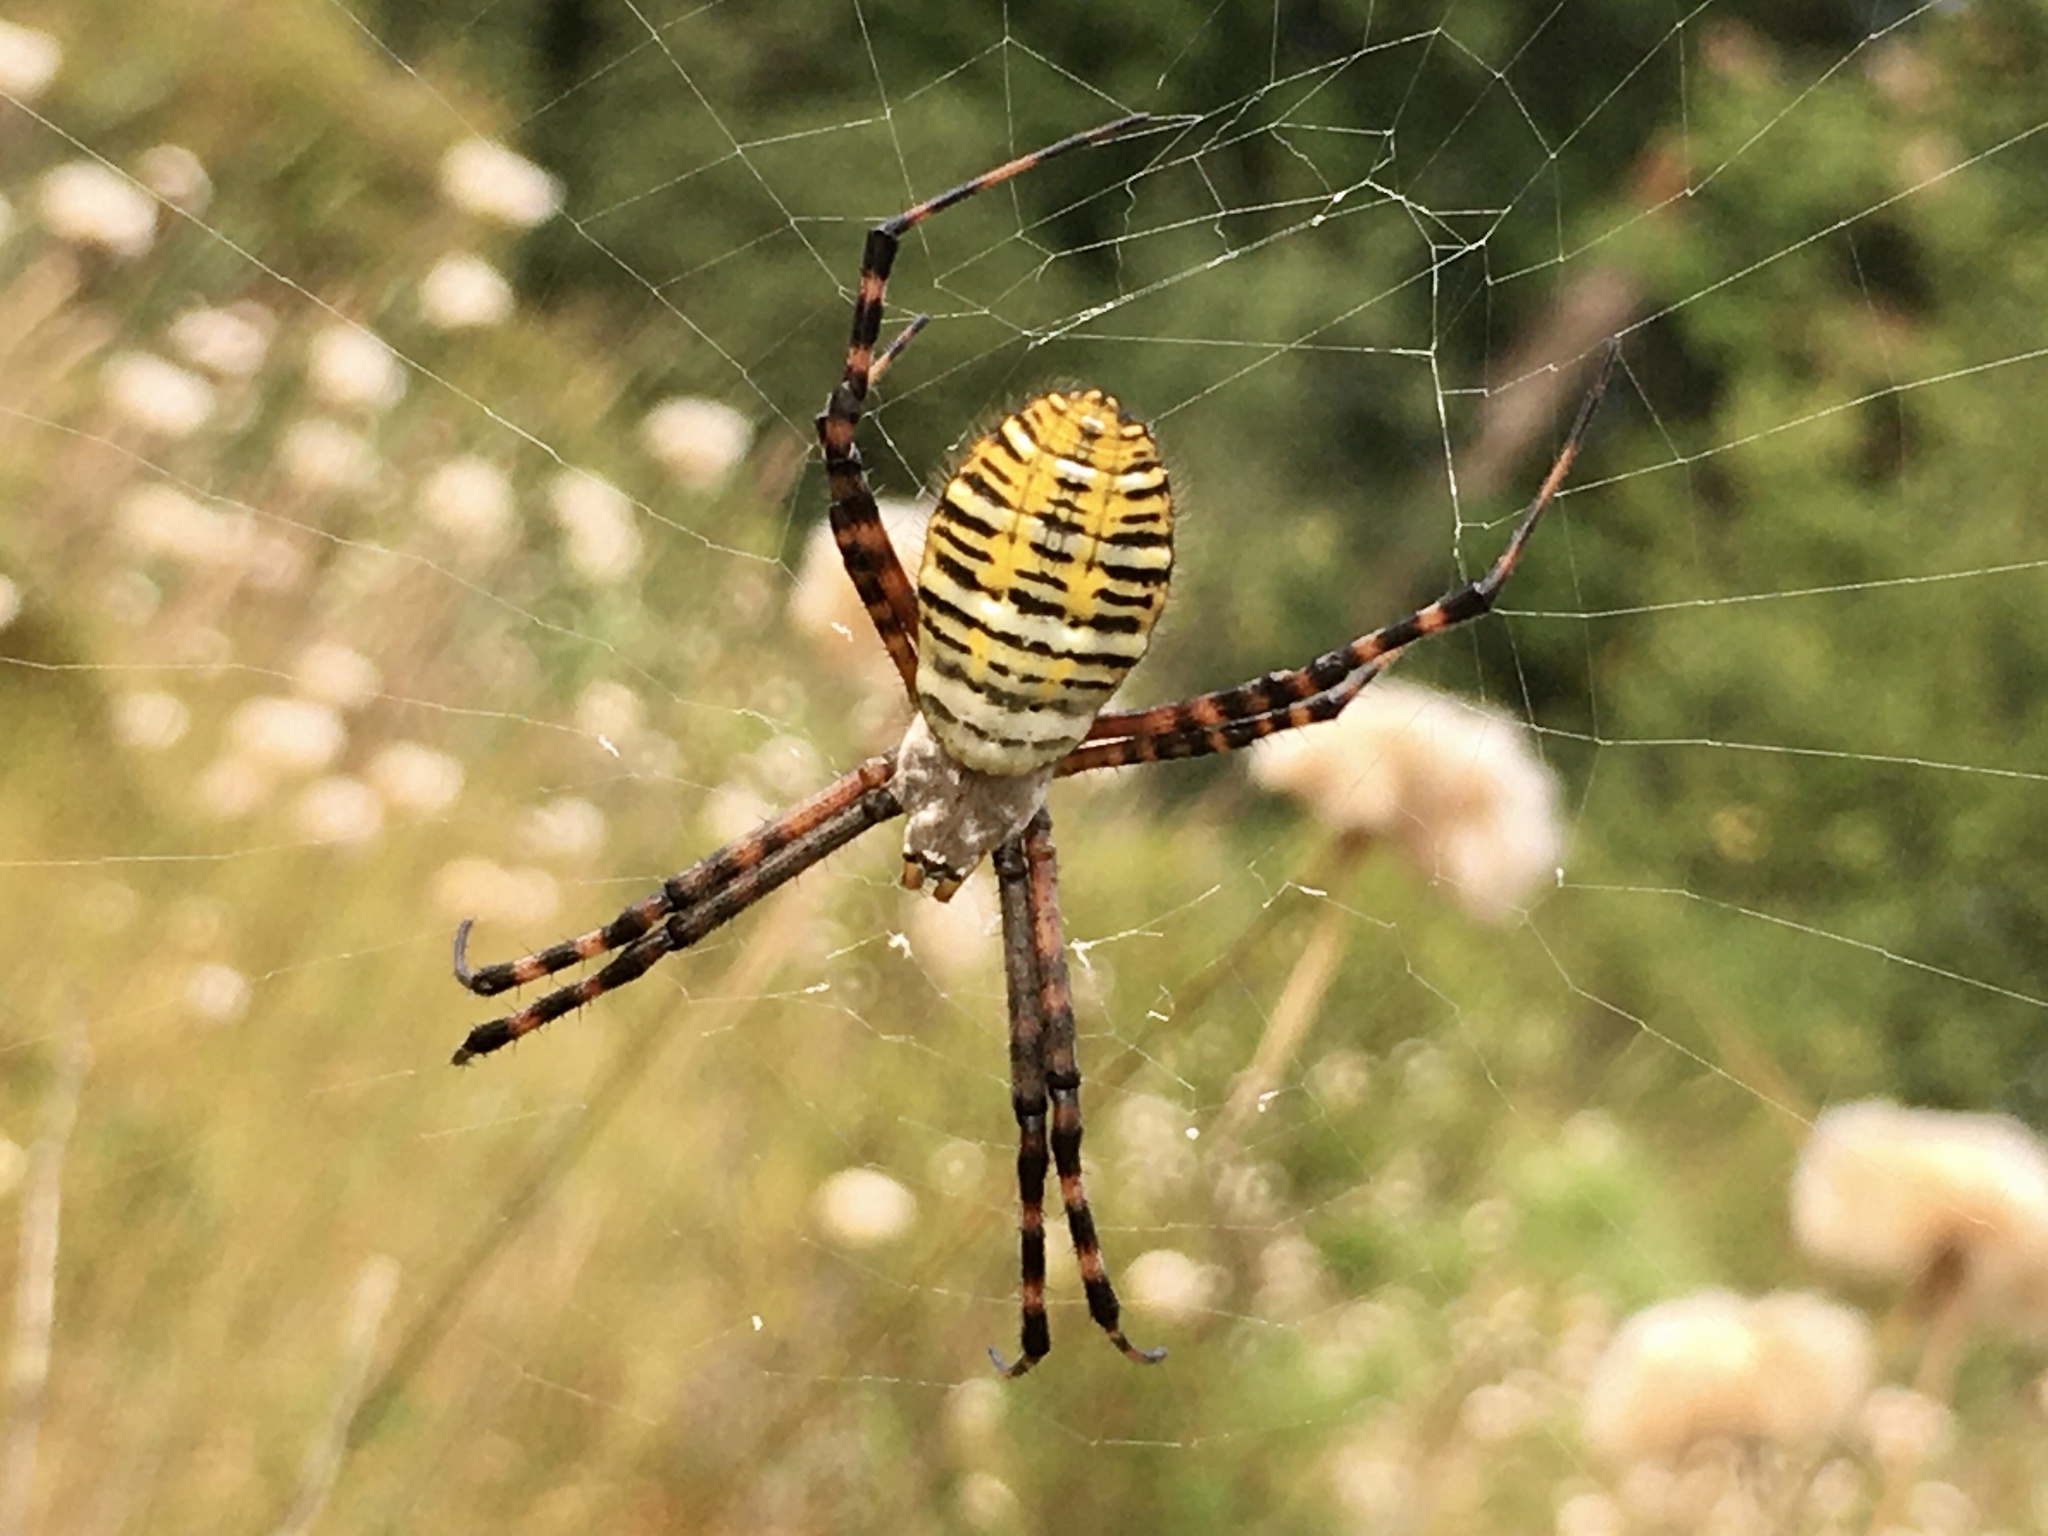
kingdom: Animalia
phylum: Arthropoda
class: Arachnida
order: Araneae
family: Araneidae
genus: Argiope
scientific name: Argiope trifasciata
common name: Banded garden spider
